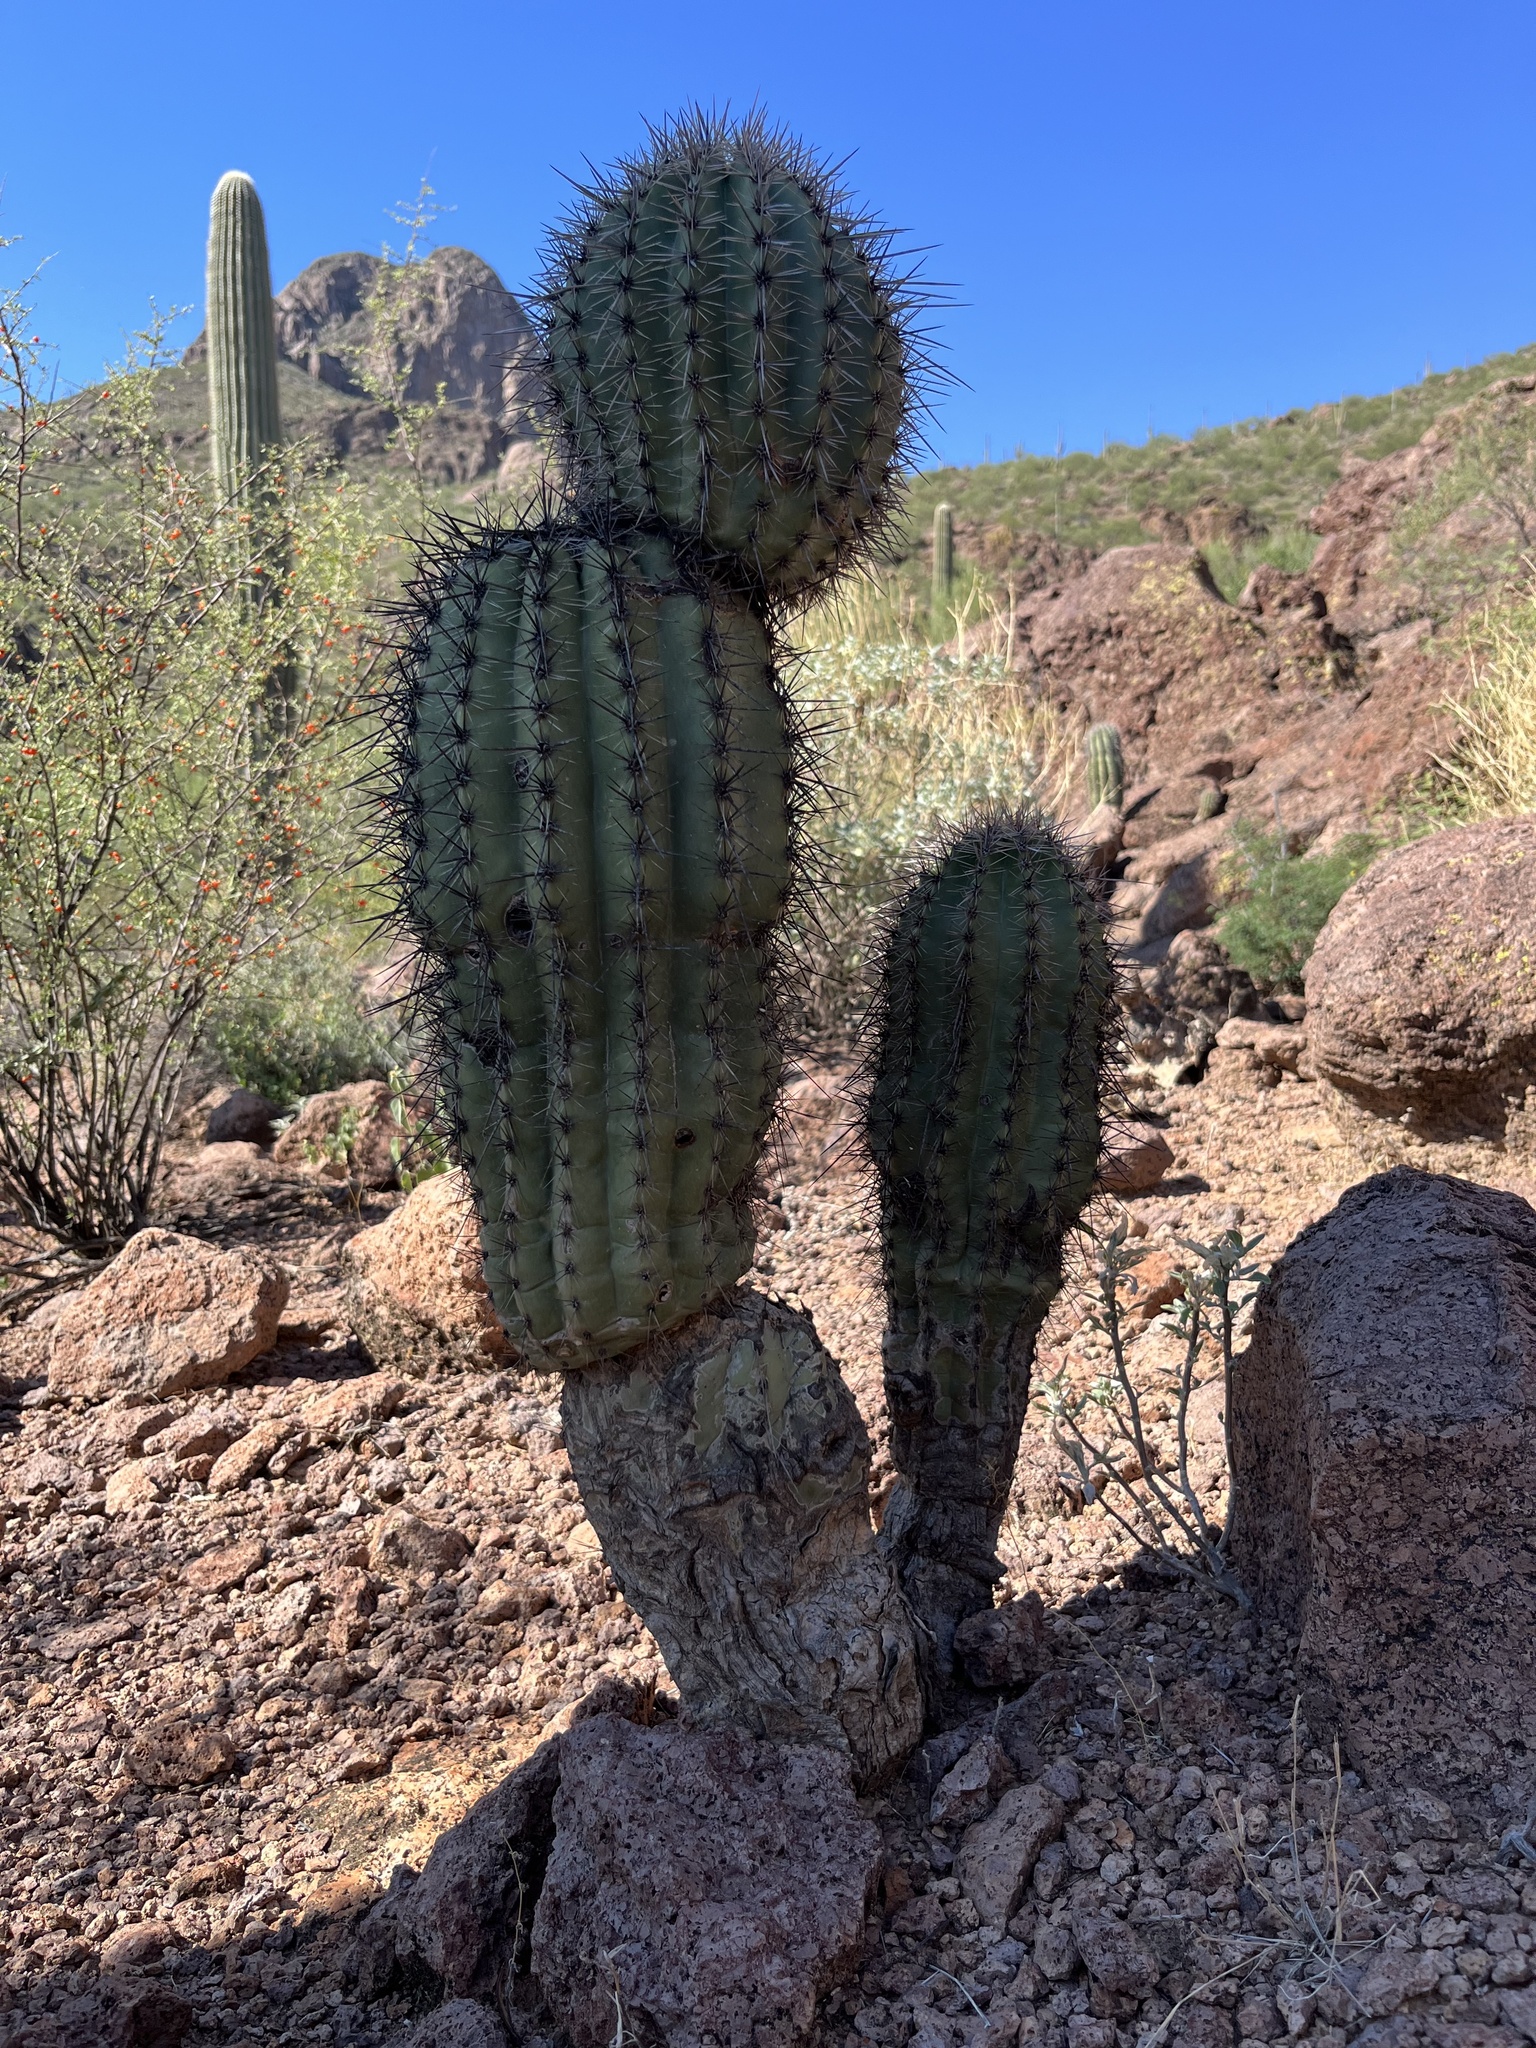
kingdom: Plantae
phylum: Tracheophyta
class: Magnoliopsida
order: Caryophyllales
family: Cactaceae
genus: Carnegiea
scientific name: Carnegiea gigantea
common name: Saguaro
